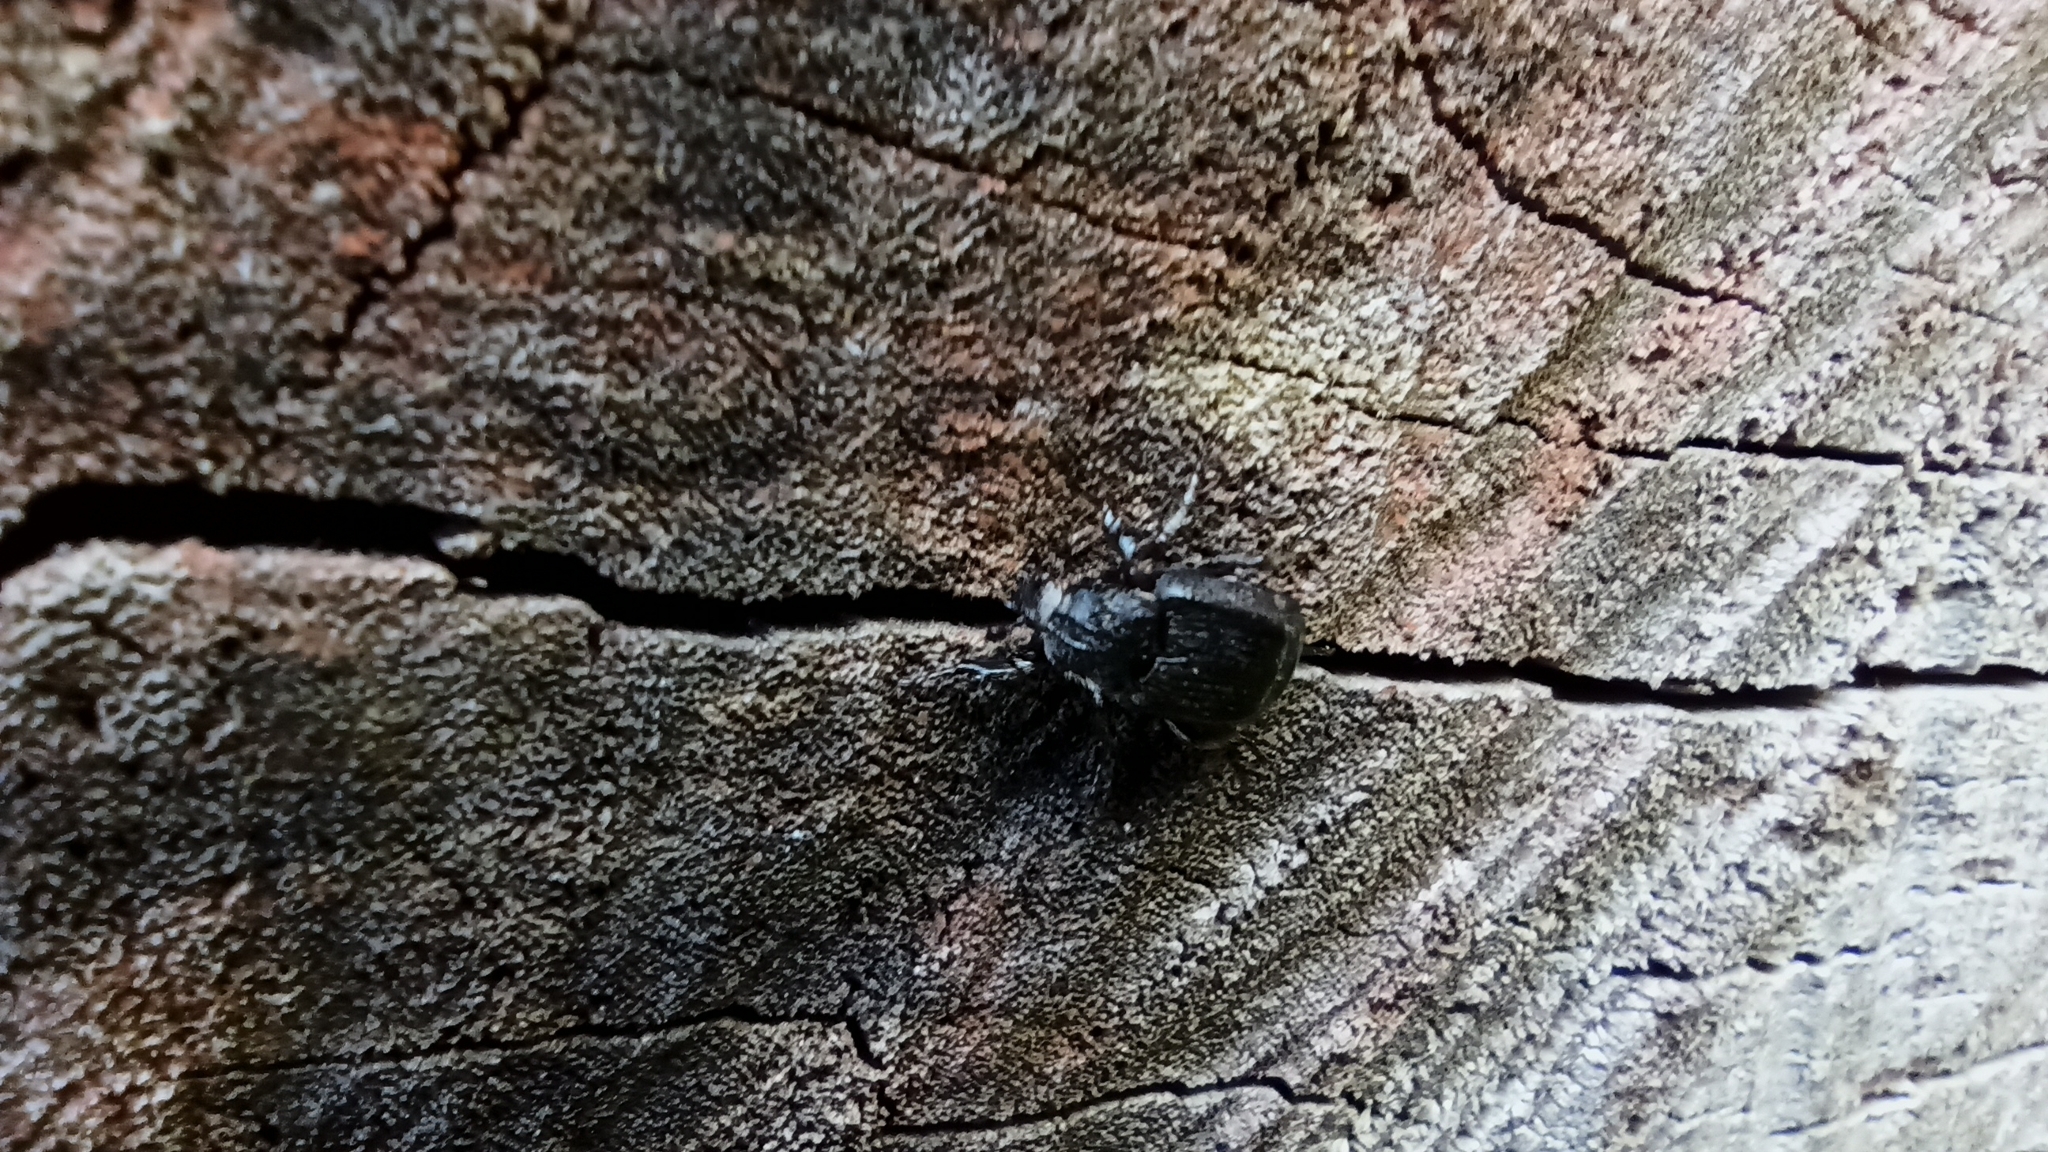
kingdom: Animalia
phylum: Arthropoda
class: Insecta
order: Coleoptera
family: Scarabaeidae
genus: Valgus
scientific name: Valgus hemipterus
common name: Bug flower chafer
